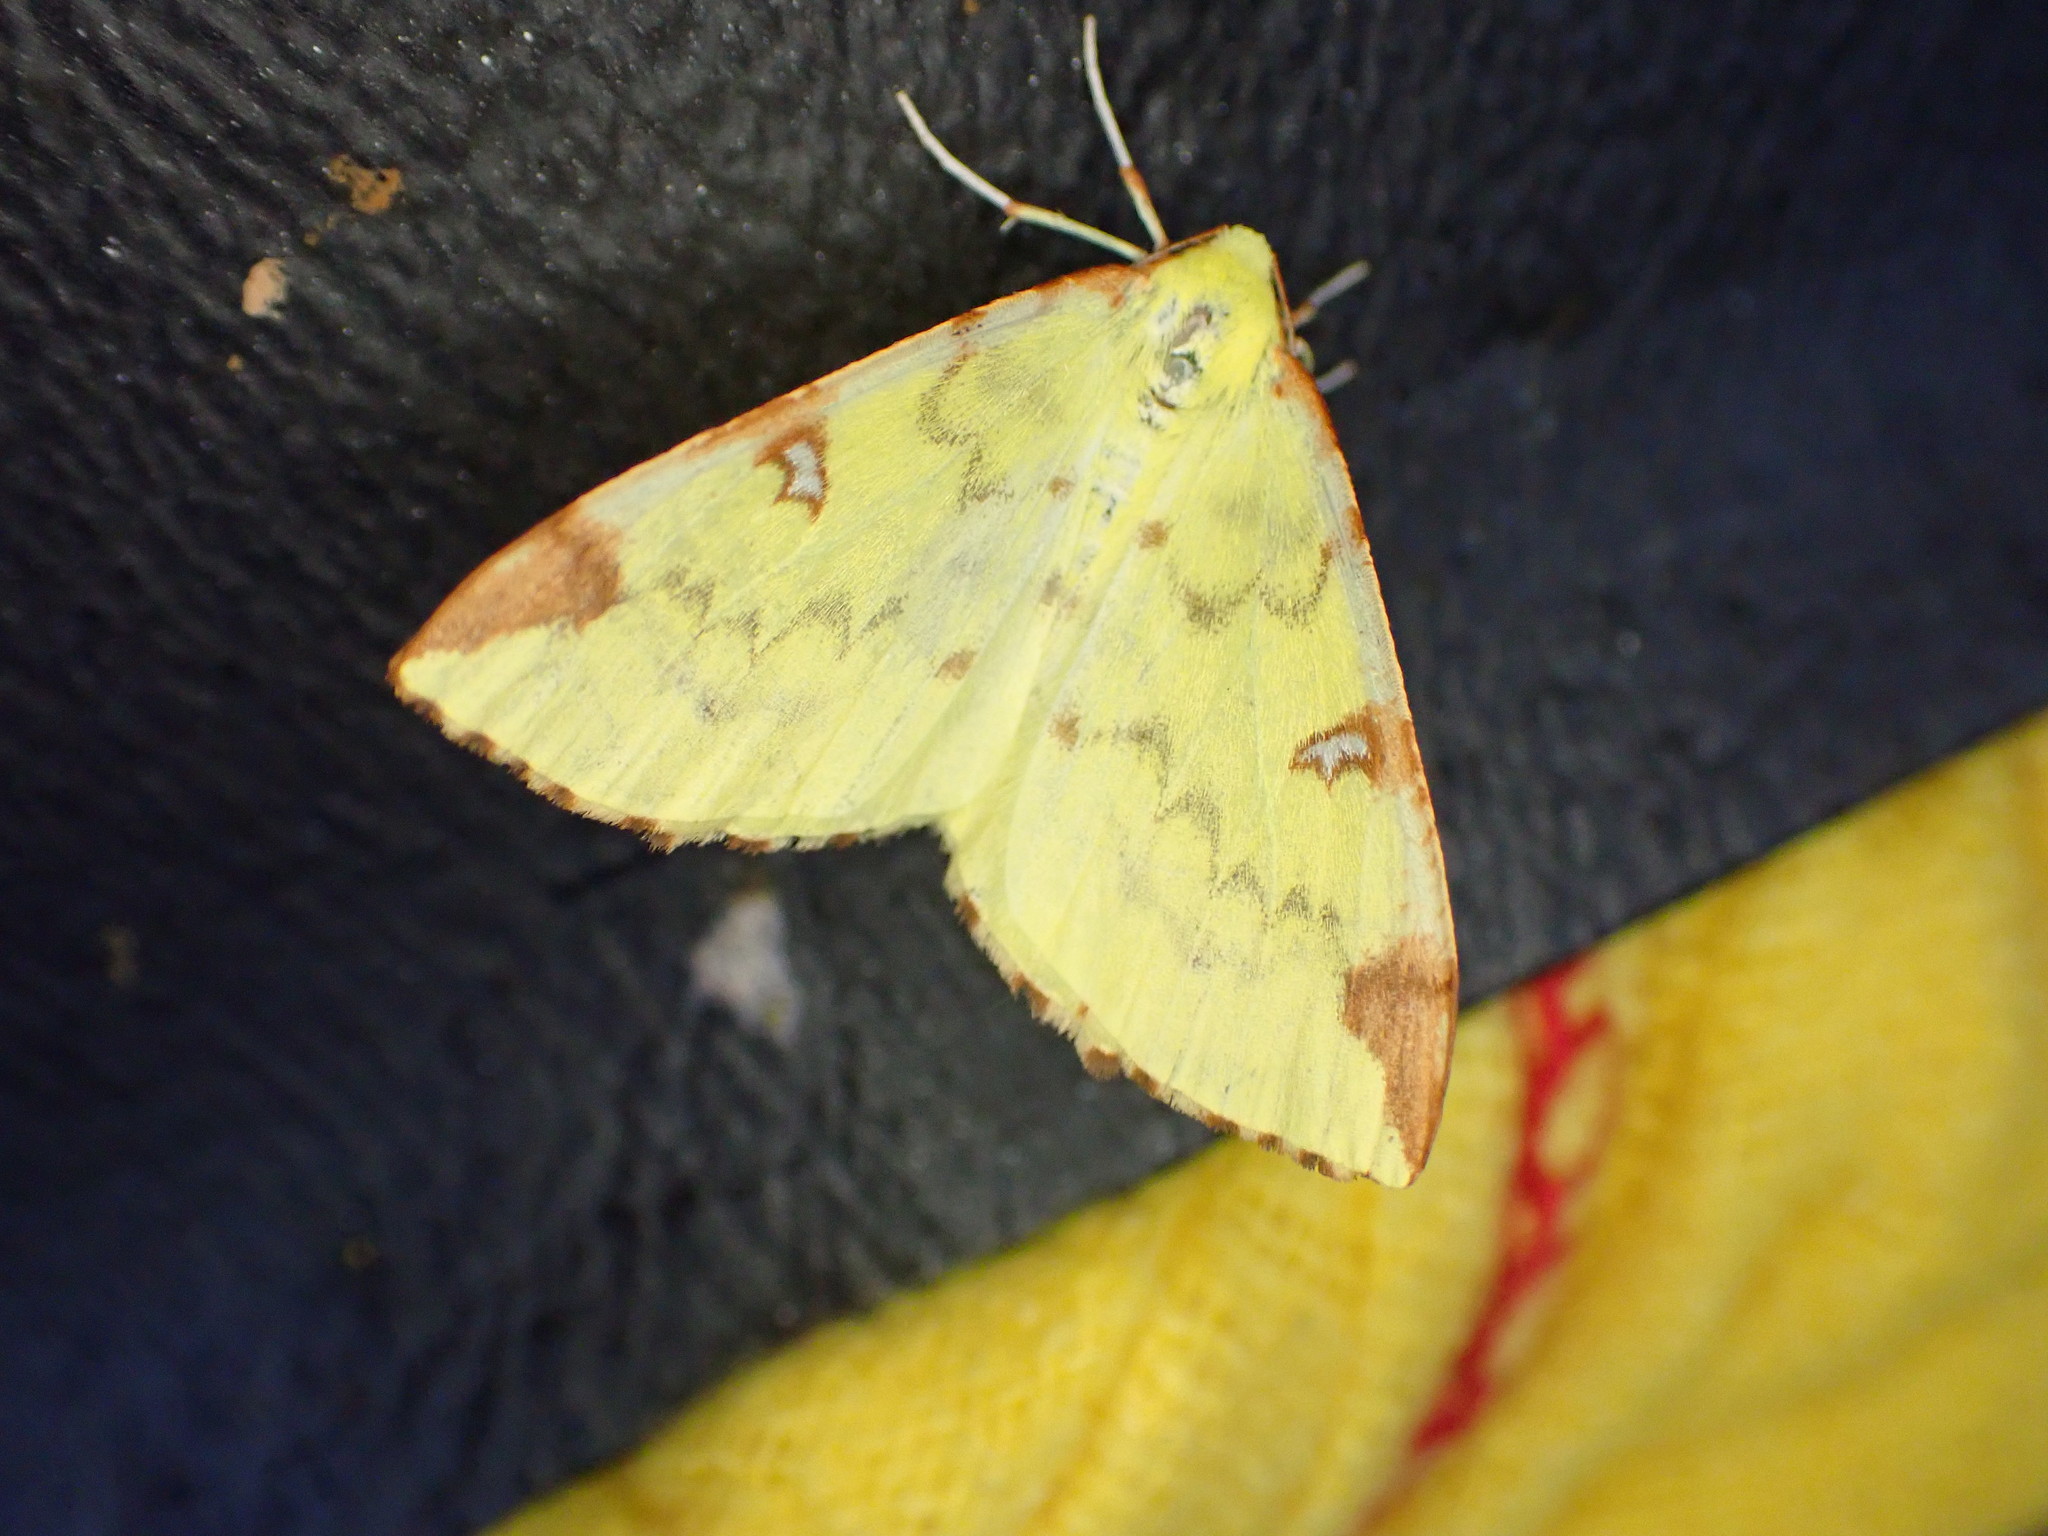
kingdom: Animalia
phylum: Arthropoda
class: Insecta
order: Lepidoptera
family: Geometridae
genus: Opisthograptis
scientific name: Opisthograptis luteolata
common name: Brimstone moth
